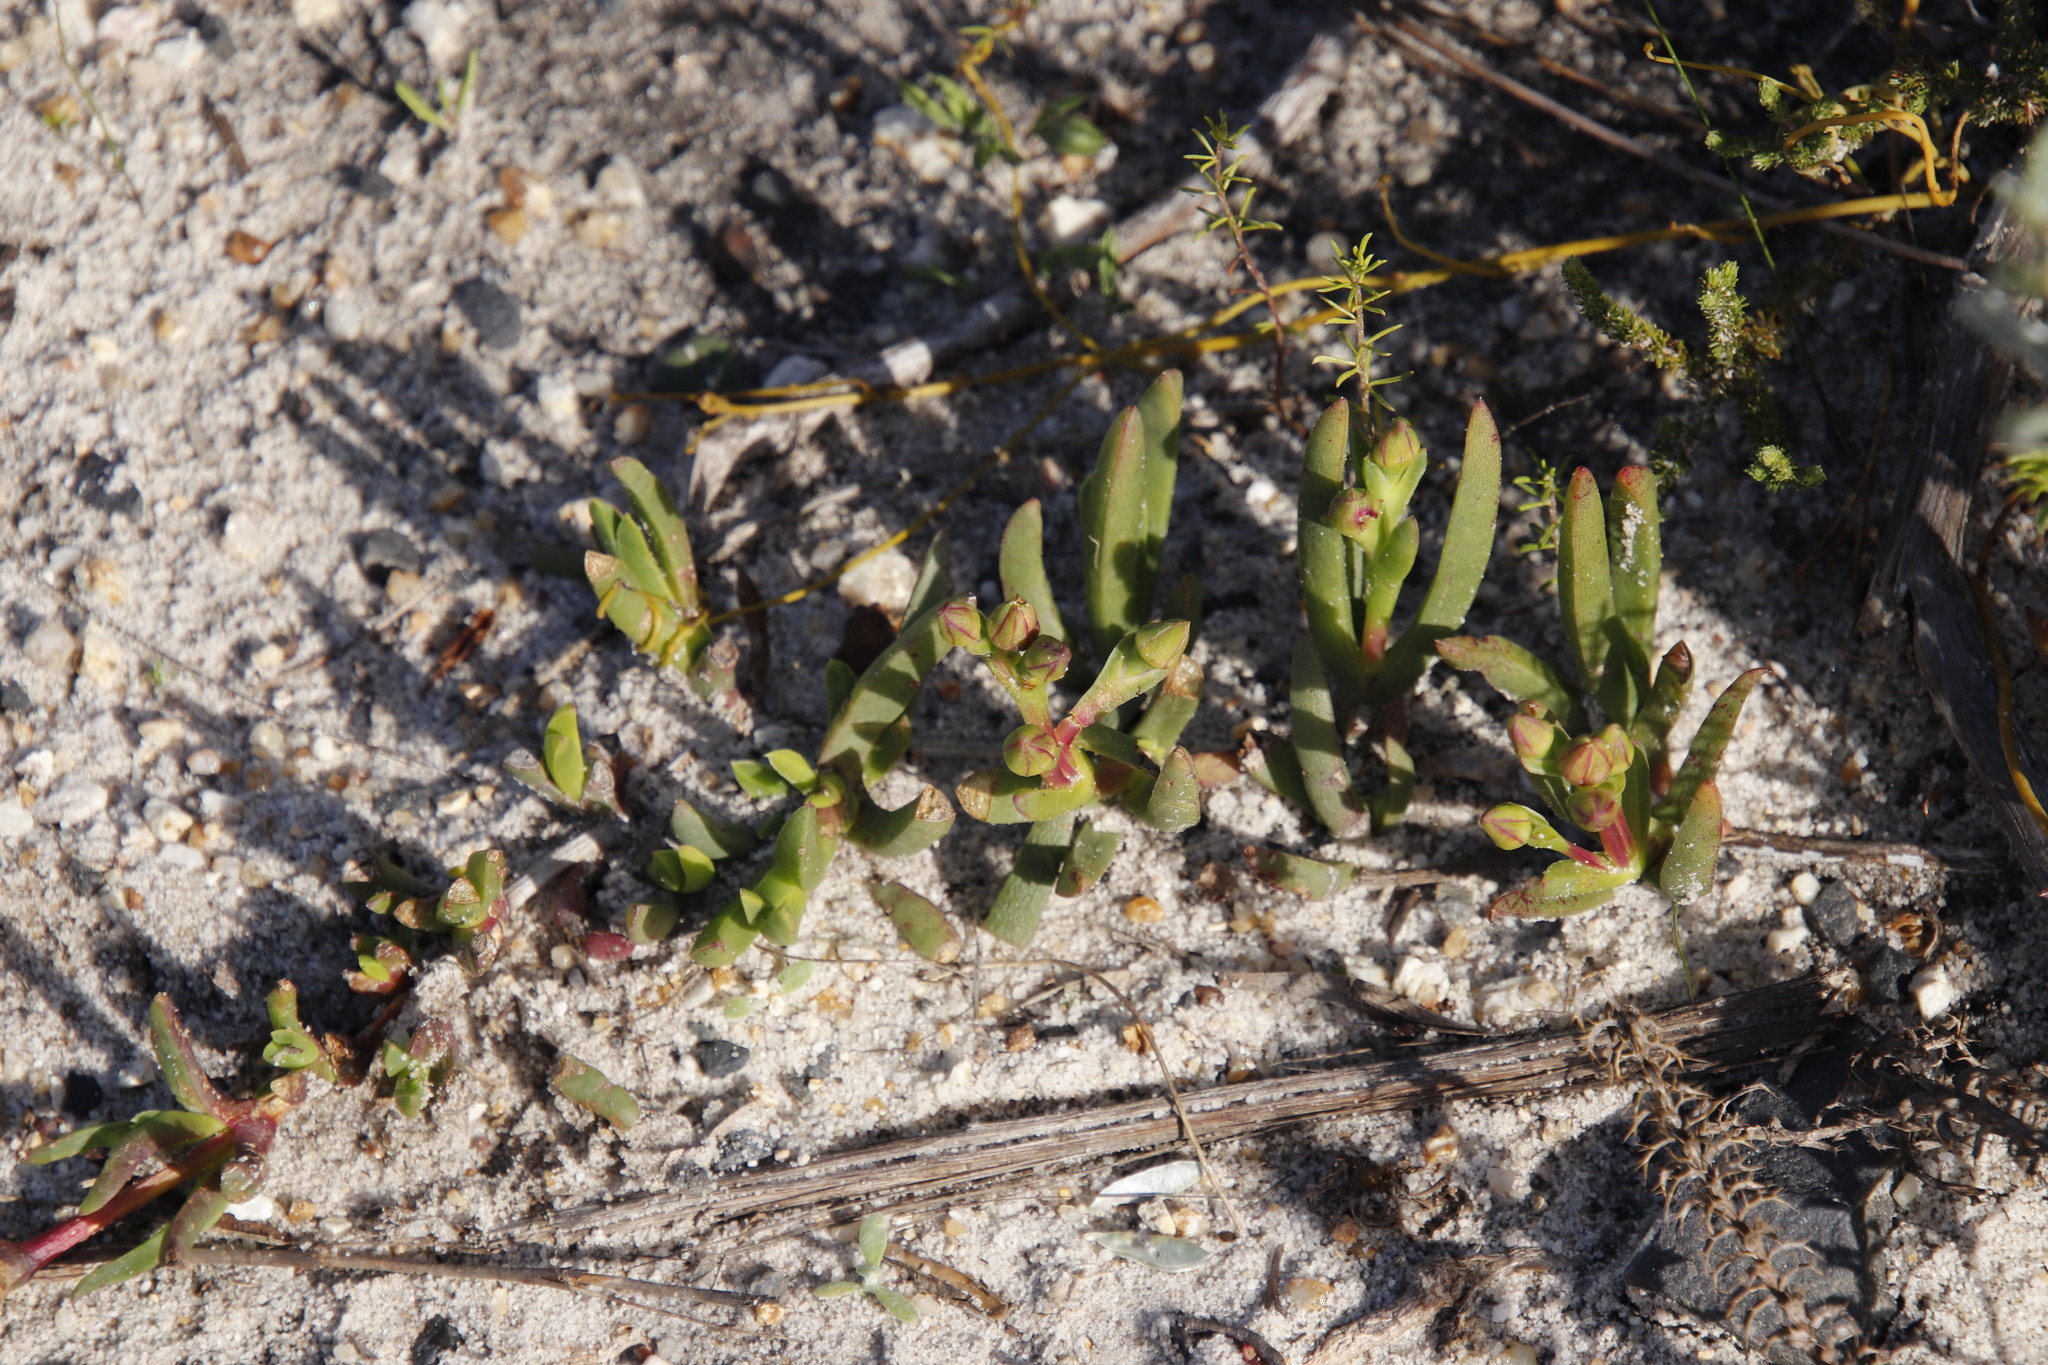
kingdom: Plantae
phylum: Tracheophyta
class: Magnoliopsida
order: Caryophyllales
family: Aizoaceae
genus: Ruschia
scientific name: Ruschia sarmentosa
